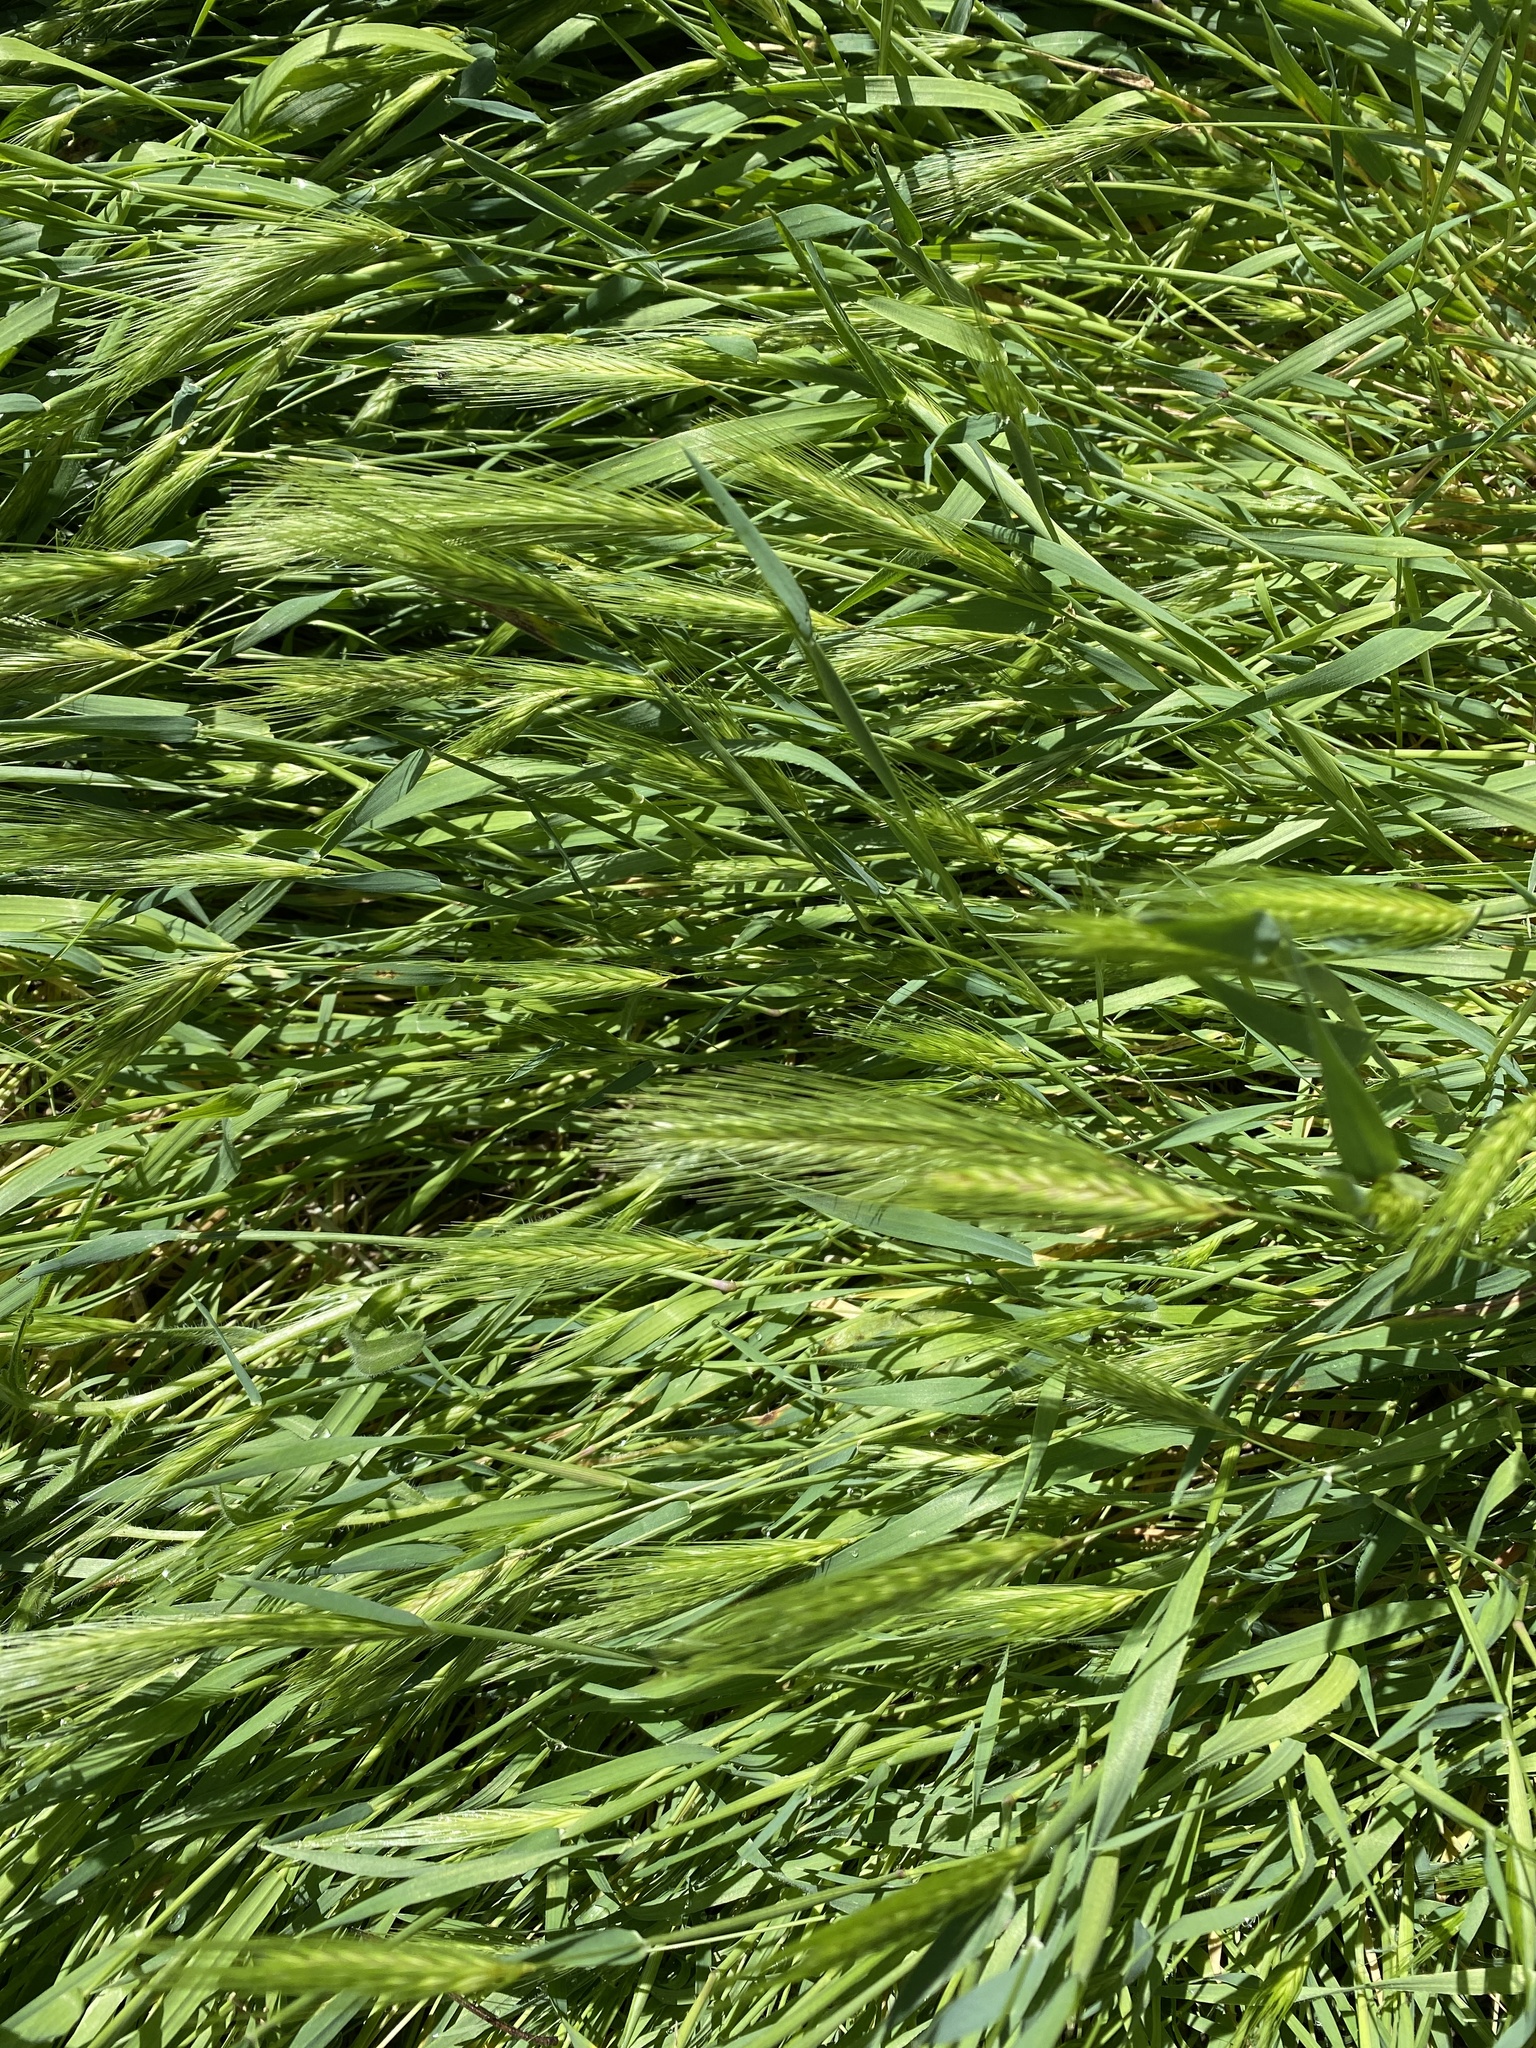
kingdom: Plantae
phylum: Tracheophyta
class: Liliopsida
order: Poales
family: Poaceae
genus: Hordeum
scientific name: Hordeum murinum
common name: Wall barley
